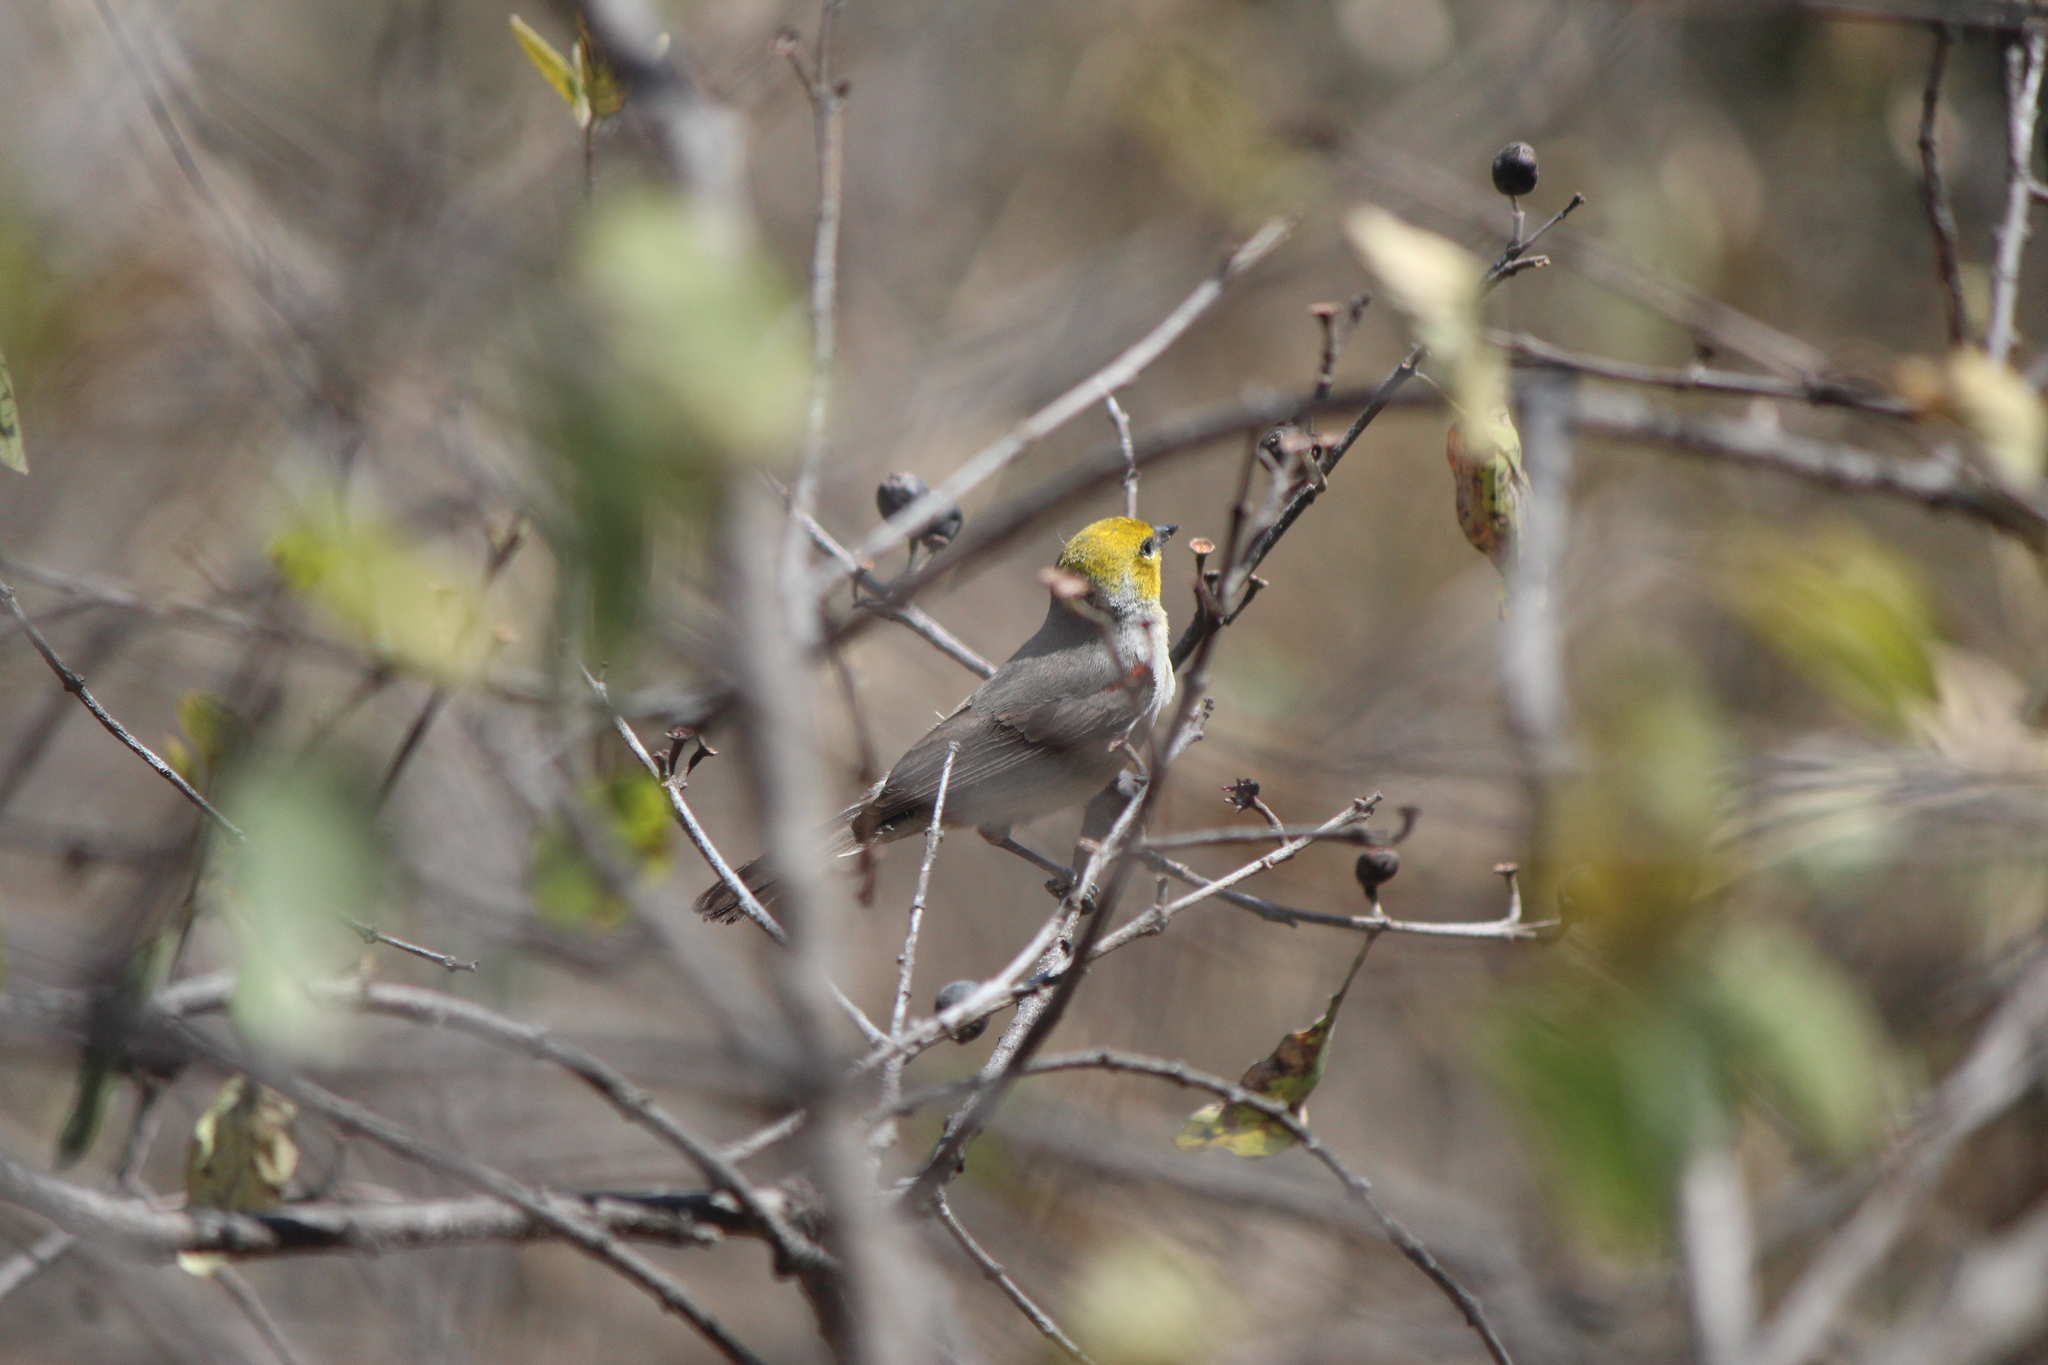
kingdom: Animalia
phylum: Chordata
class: Aves
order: Passeriformes
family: Remizidae
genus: Auriparus
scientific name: Auriparus flaviceps
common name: Verdin
